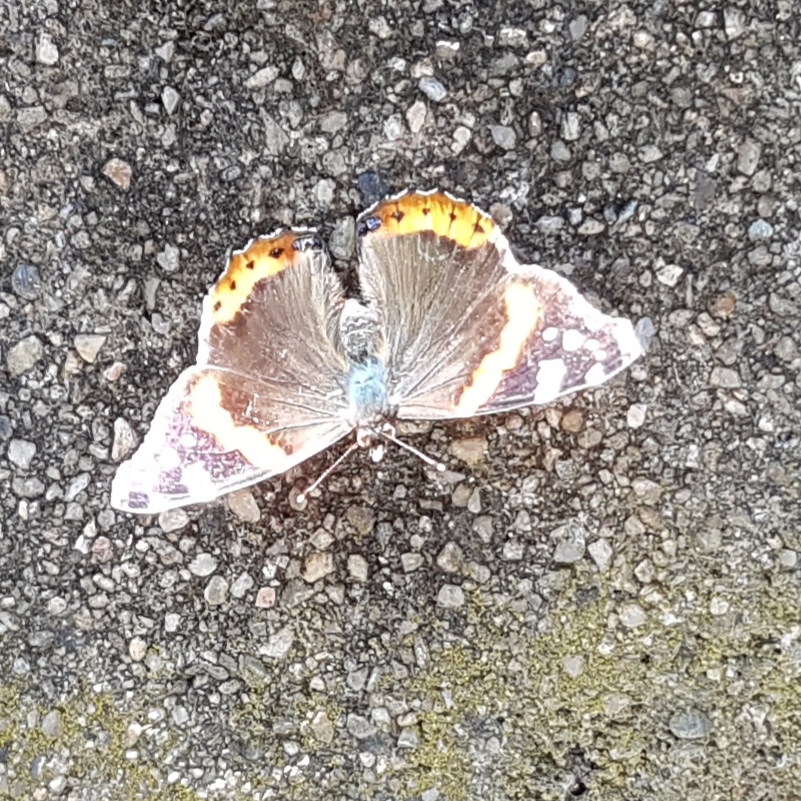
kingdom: Animalia
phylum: Arthropoda
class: Insecta
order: Lepidoptera
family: Nymphalidae
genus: Vanessa
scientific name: Vanessa atalanta
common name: Red admiral
